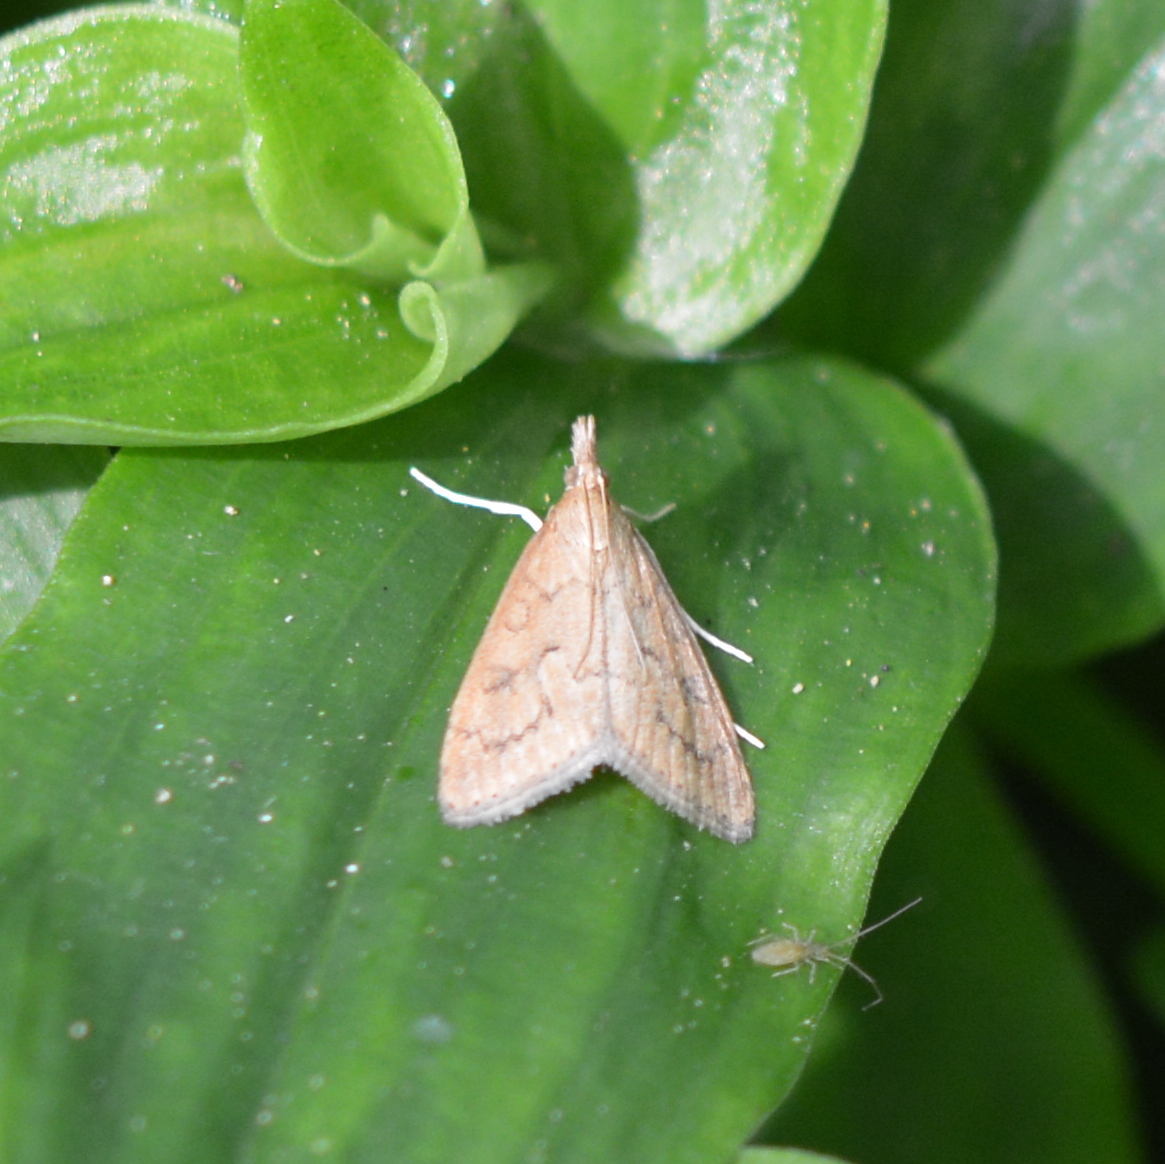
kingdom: Animalia
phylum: Arthropoda
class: Insecta
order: Lepidoptera
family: Crambidae
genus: Udea
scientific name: Udea rubigalis
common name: Celery leaftier moth
